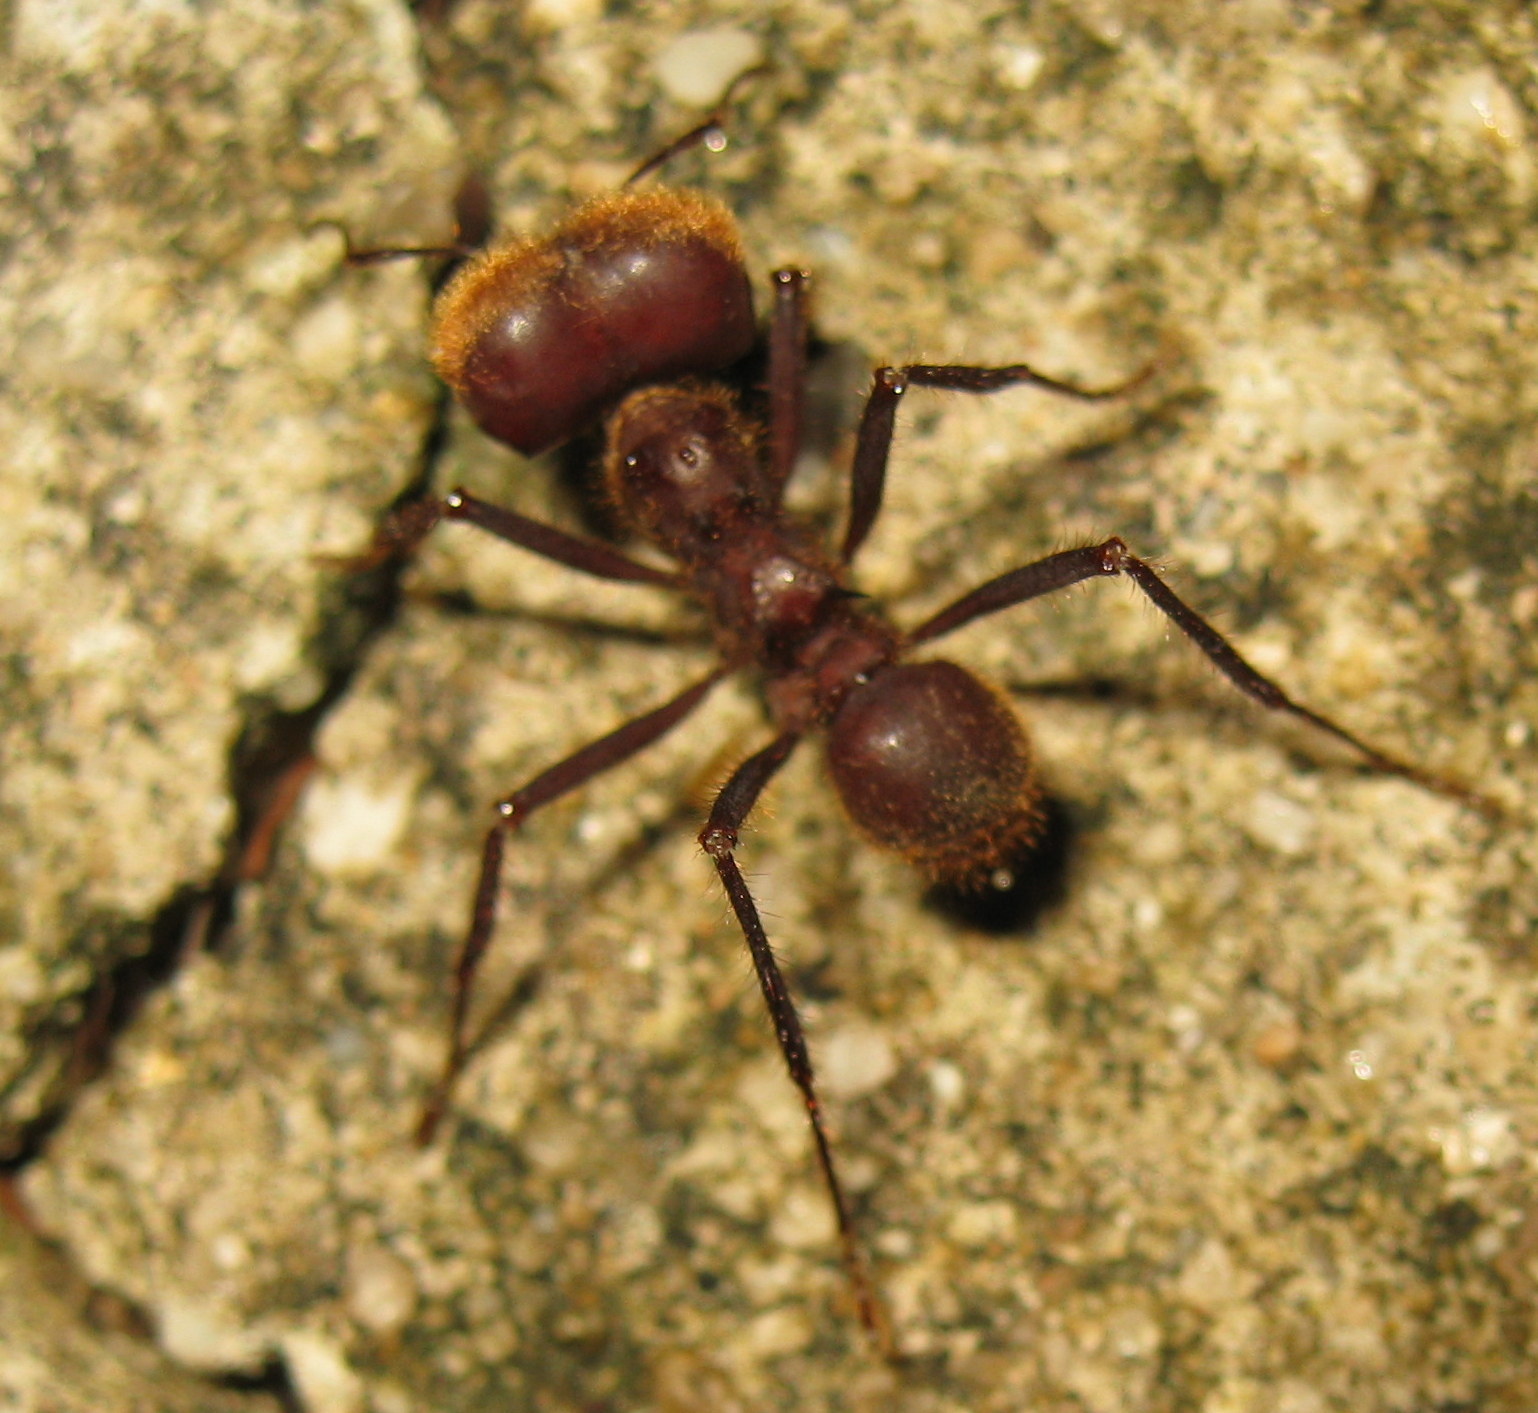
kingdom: Animalia
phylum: Arthropoda
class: Insecta
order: Hymenoptera
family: Formicidae
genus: Atta
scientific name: Atta cephalotes
